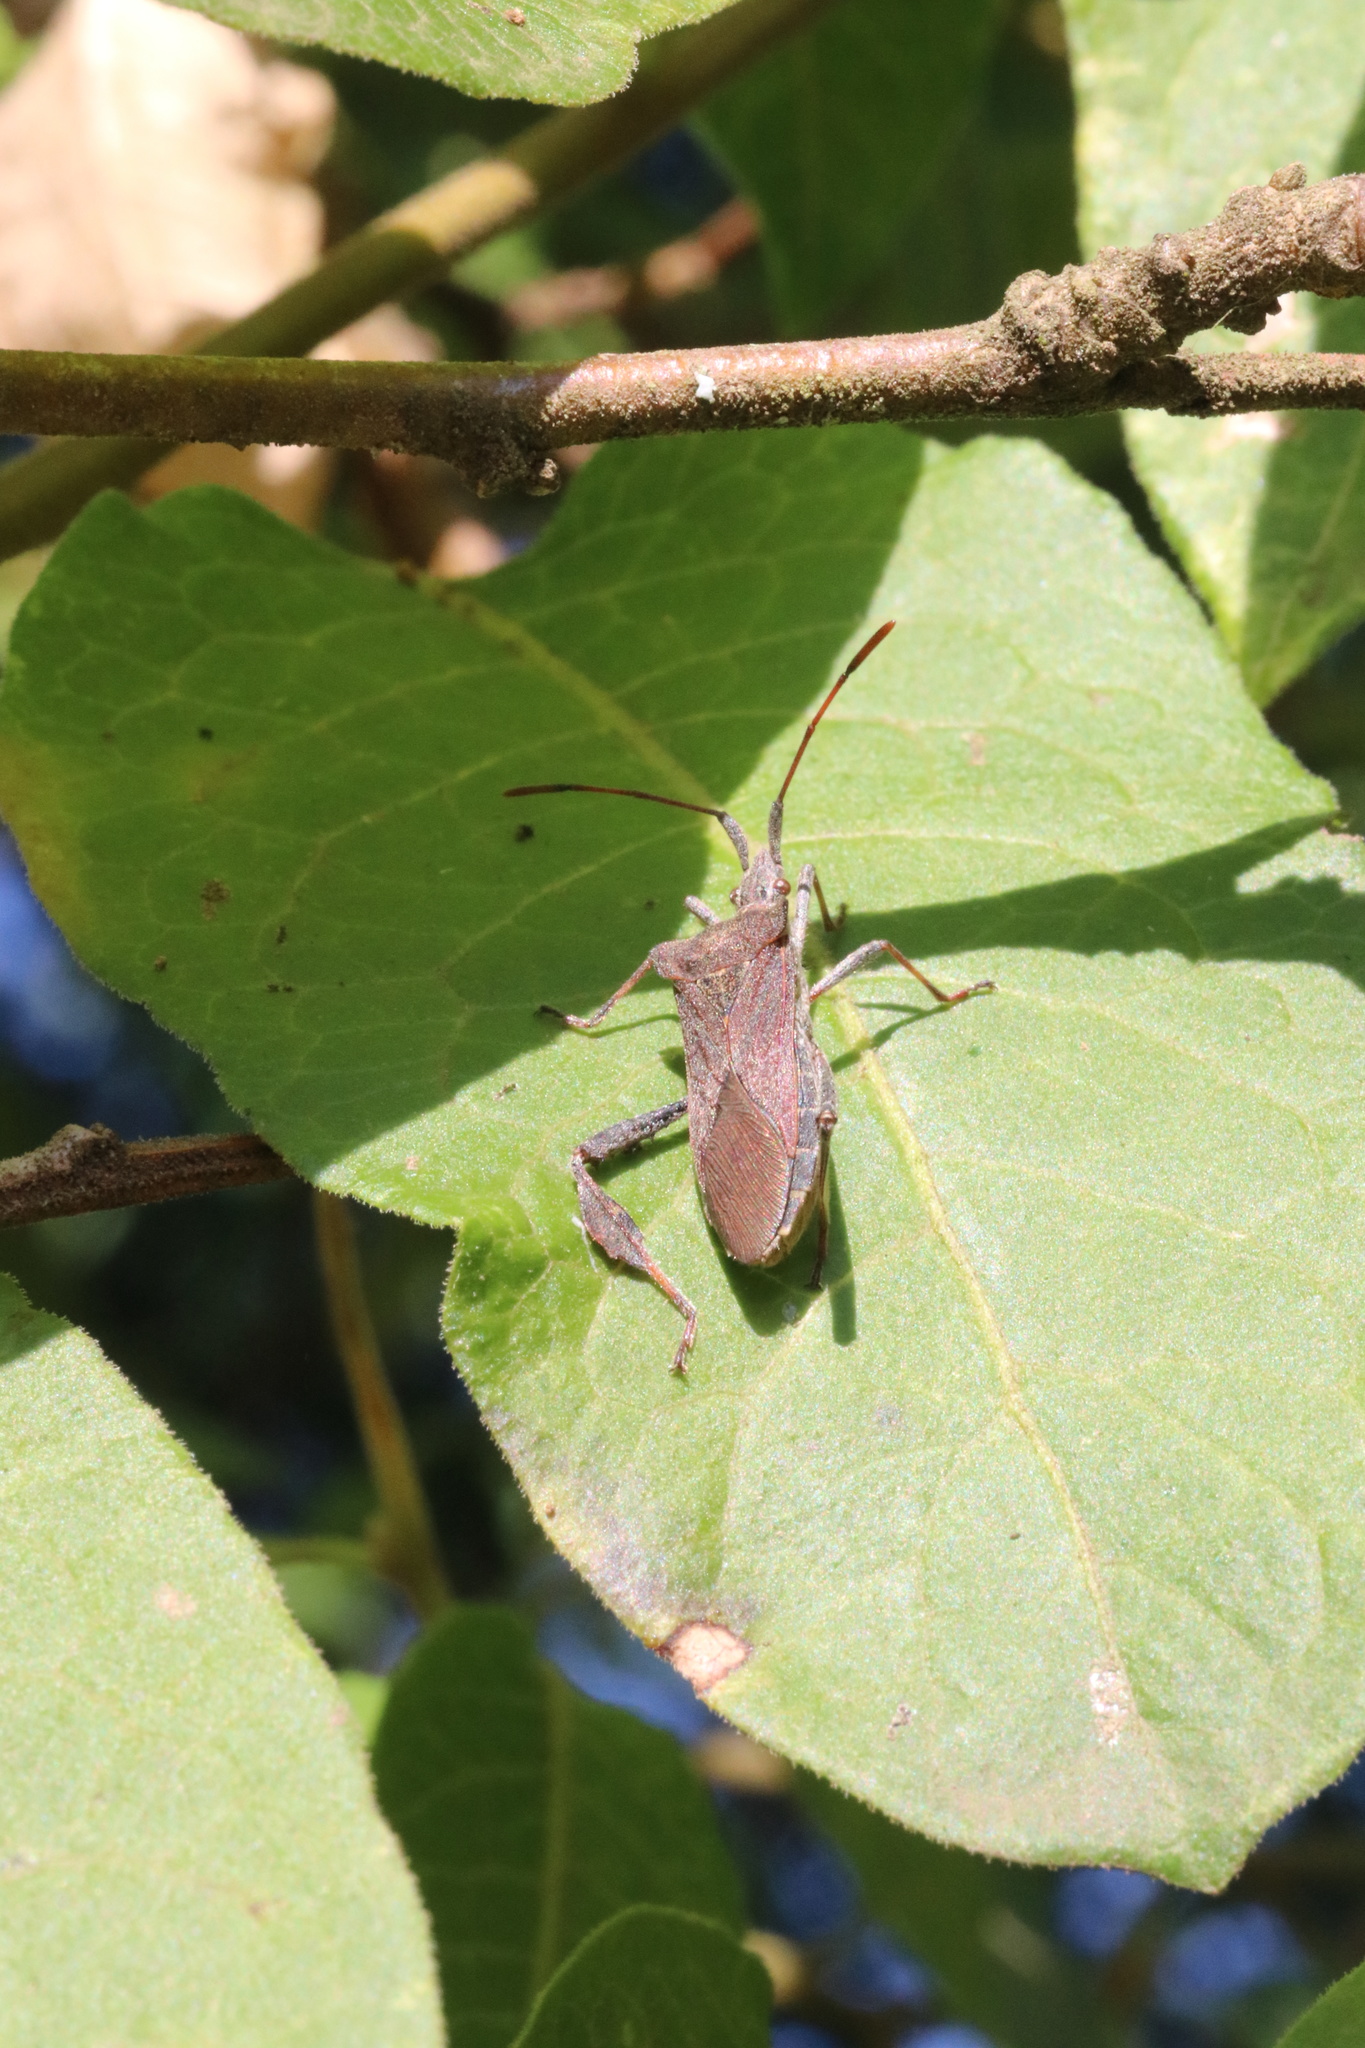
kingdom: Animalia
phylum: Arthropoda
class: Insecta
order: Hemiptera
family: Coreidae
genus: Leptoglossus
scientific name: Leptoglossus chilensis
